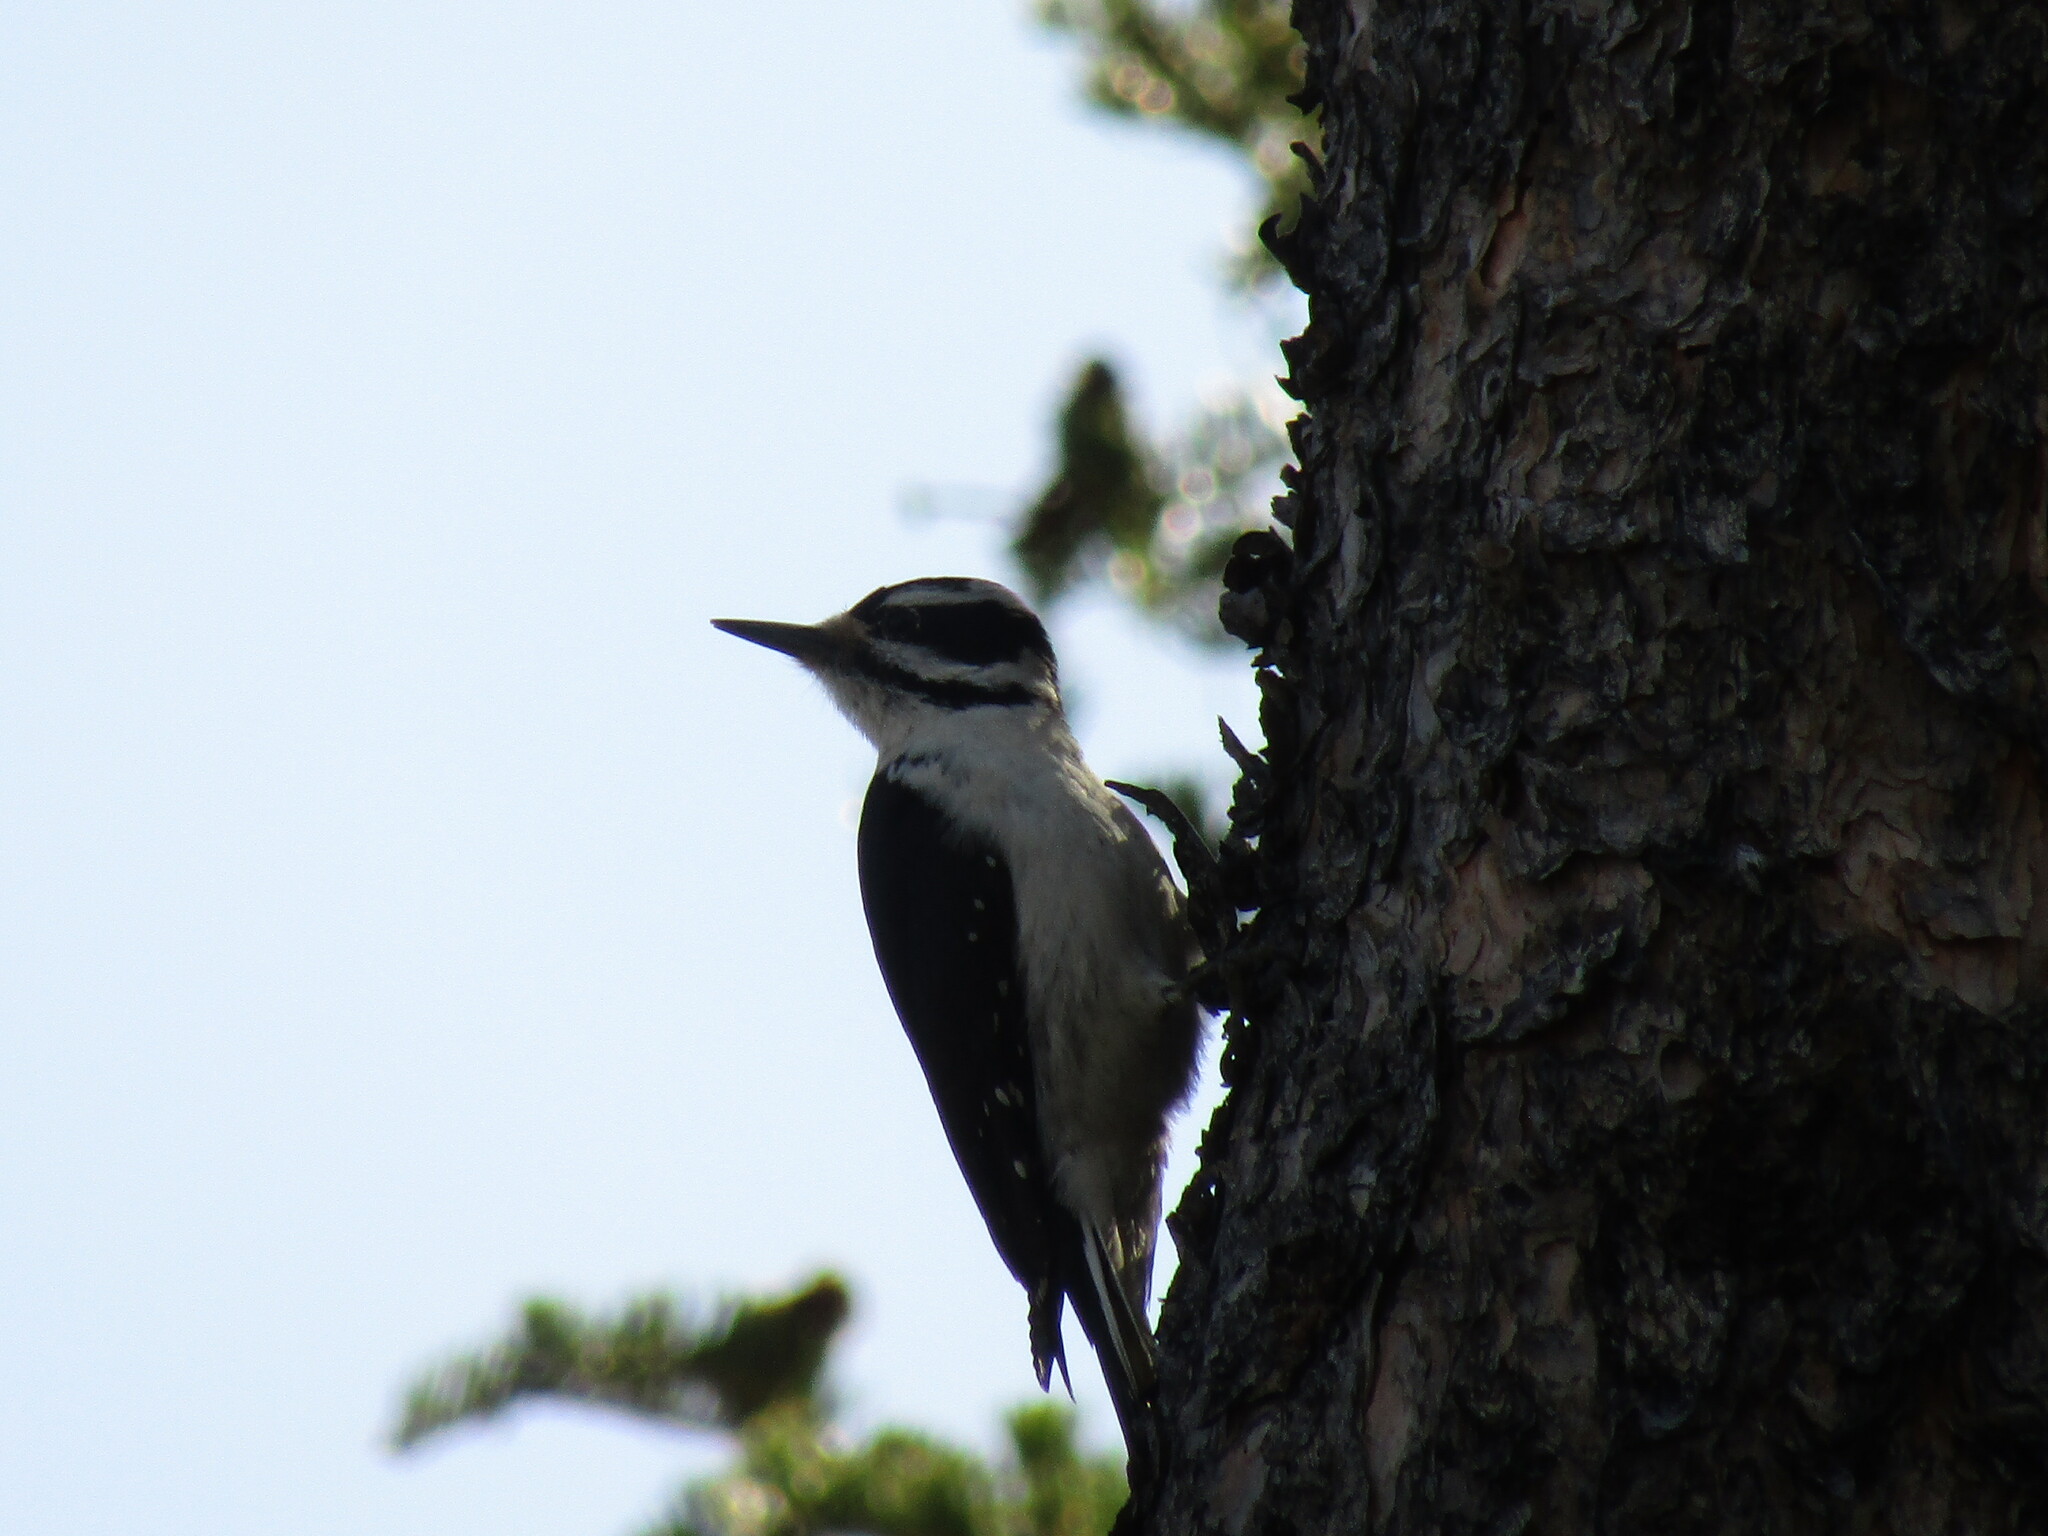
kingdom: Animalia
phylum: Chordata
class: Aves
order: Piciformes
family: Picidae
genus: Leuconotopicus
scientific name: Leuconotopicus villosus
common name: Hairy woodpecker
